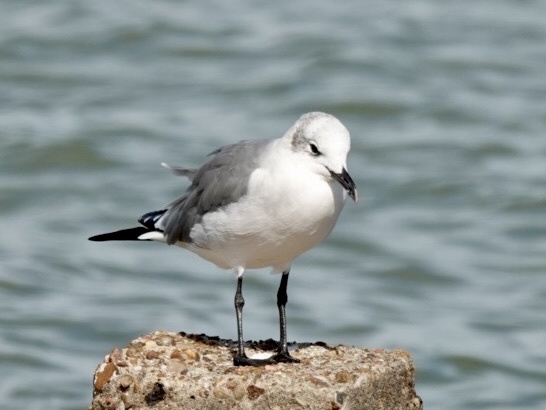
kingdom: Animalia
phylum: Chordata
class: Aves
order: Charadriiformes
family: Laridae
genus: Leucophaeus
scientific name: Leucophaeus atricilla
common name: Laughing gull
